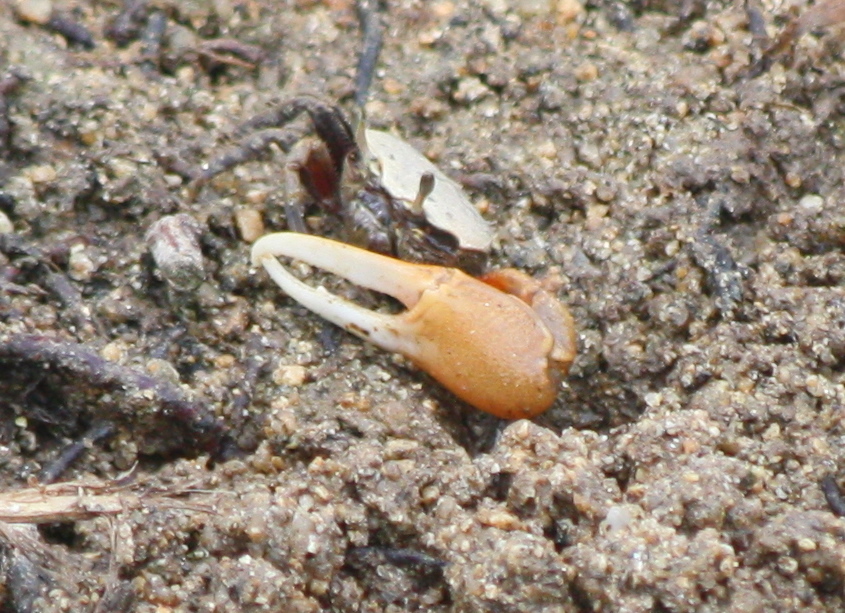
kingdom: Animalia
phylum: Arthropoda
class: Malacostraca
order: Decapoda
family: Ocypodidae
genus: Minuca
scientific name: Minuca burgersi
